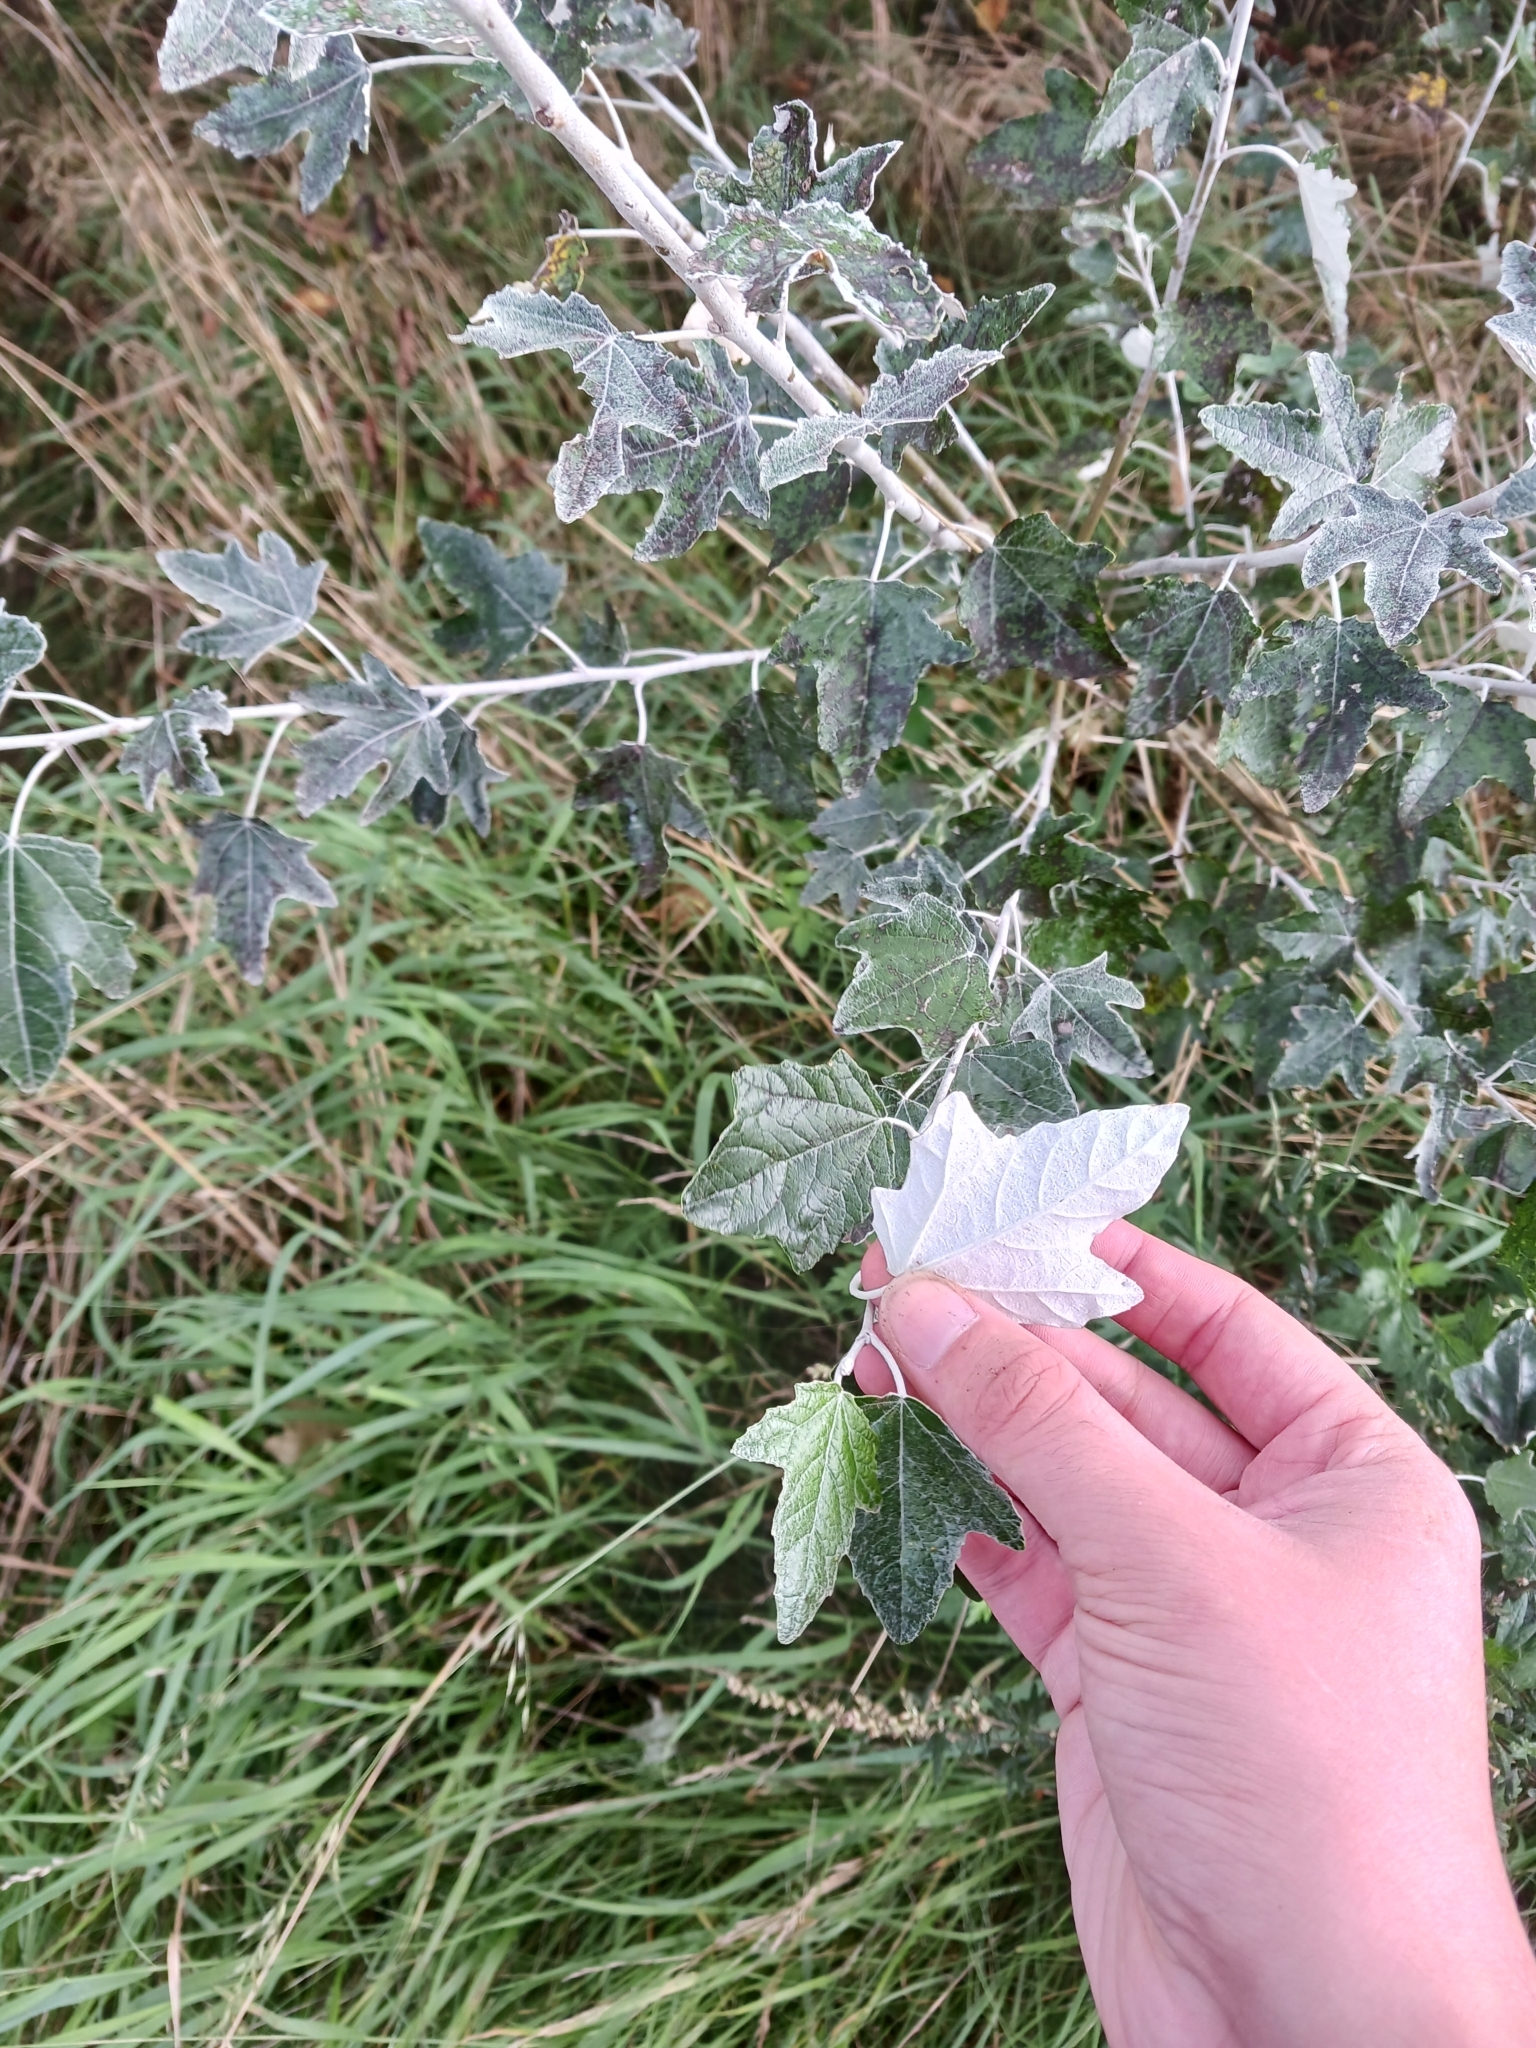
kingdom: Plantae
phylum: Tracheophyta
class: Magnoliopsida
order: Malpighiales
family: Salicaceae
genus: Populus
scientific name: Populus alba
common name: White poplar
